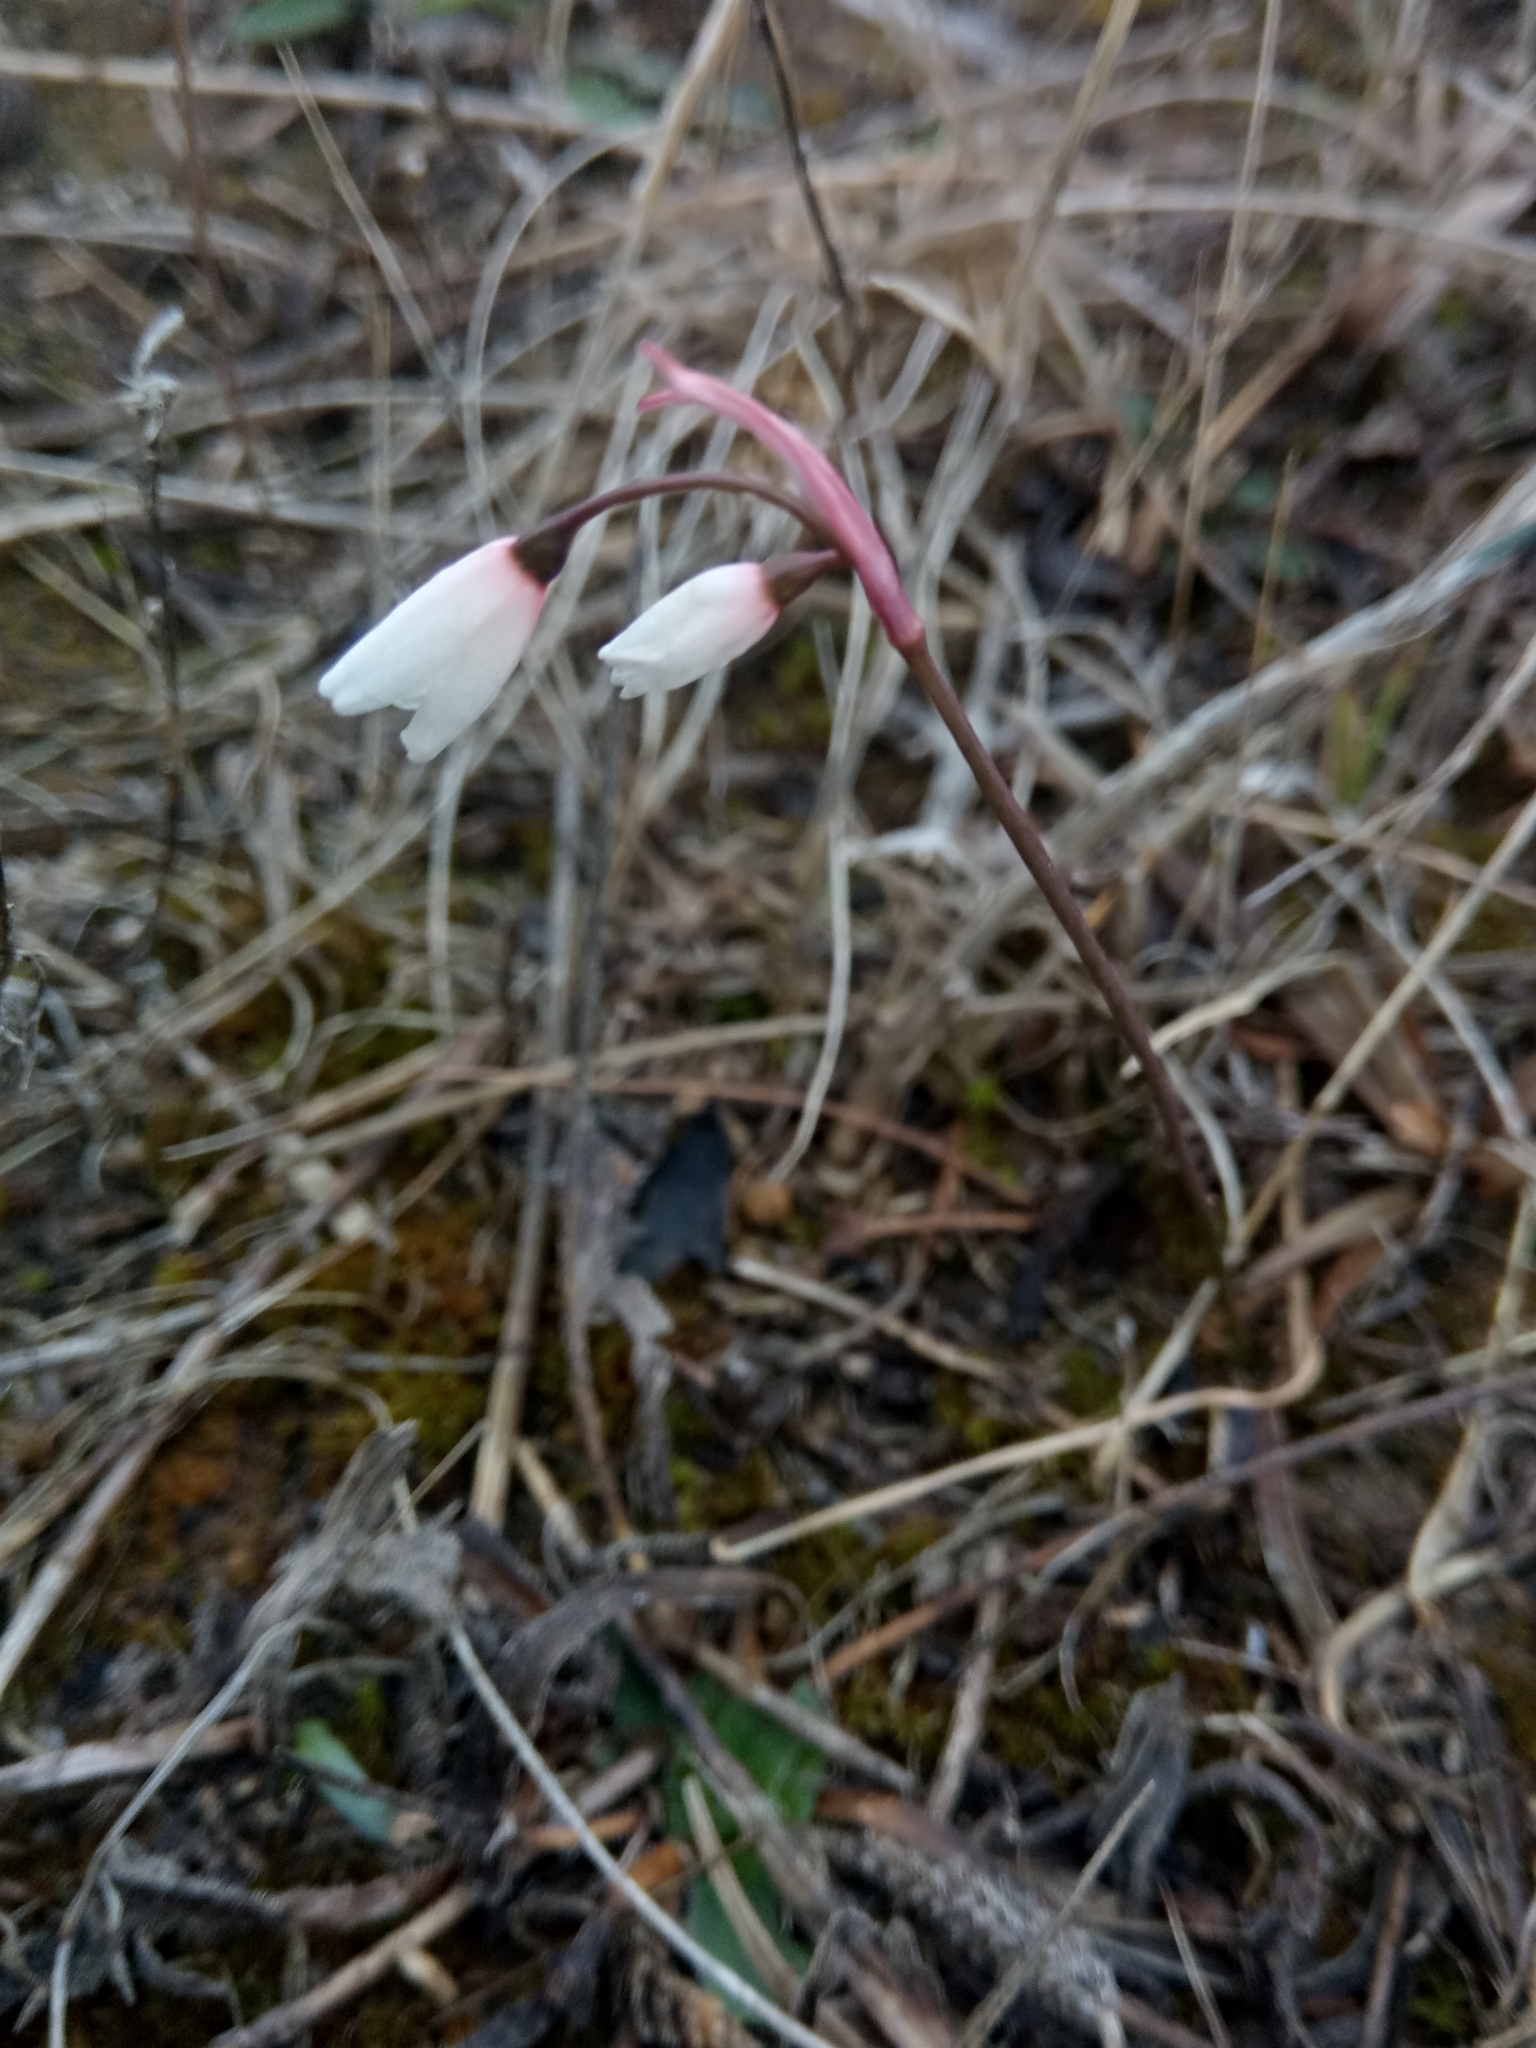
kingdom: Plantae
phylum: Tracheophyta
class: Liliopsida
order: Asparagales
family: Amaryllidaceae
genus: Acis
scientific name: Acis autumnalis
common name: Autumn snowflake
